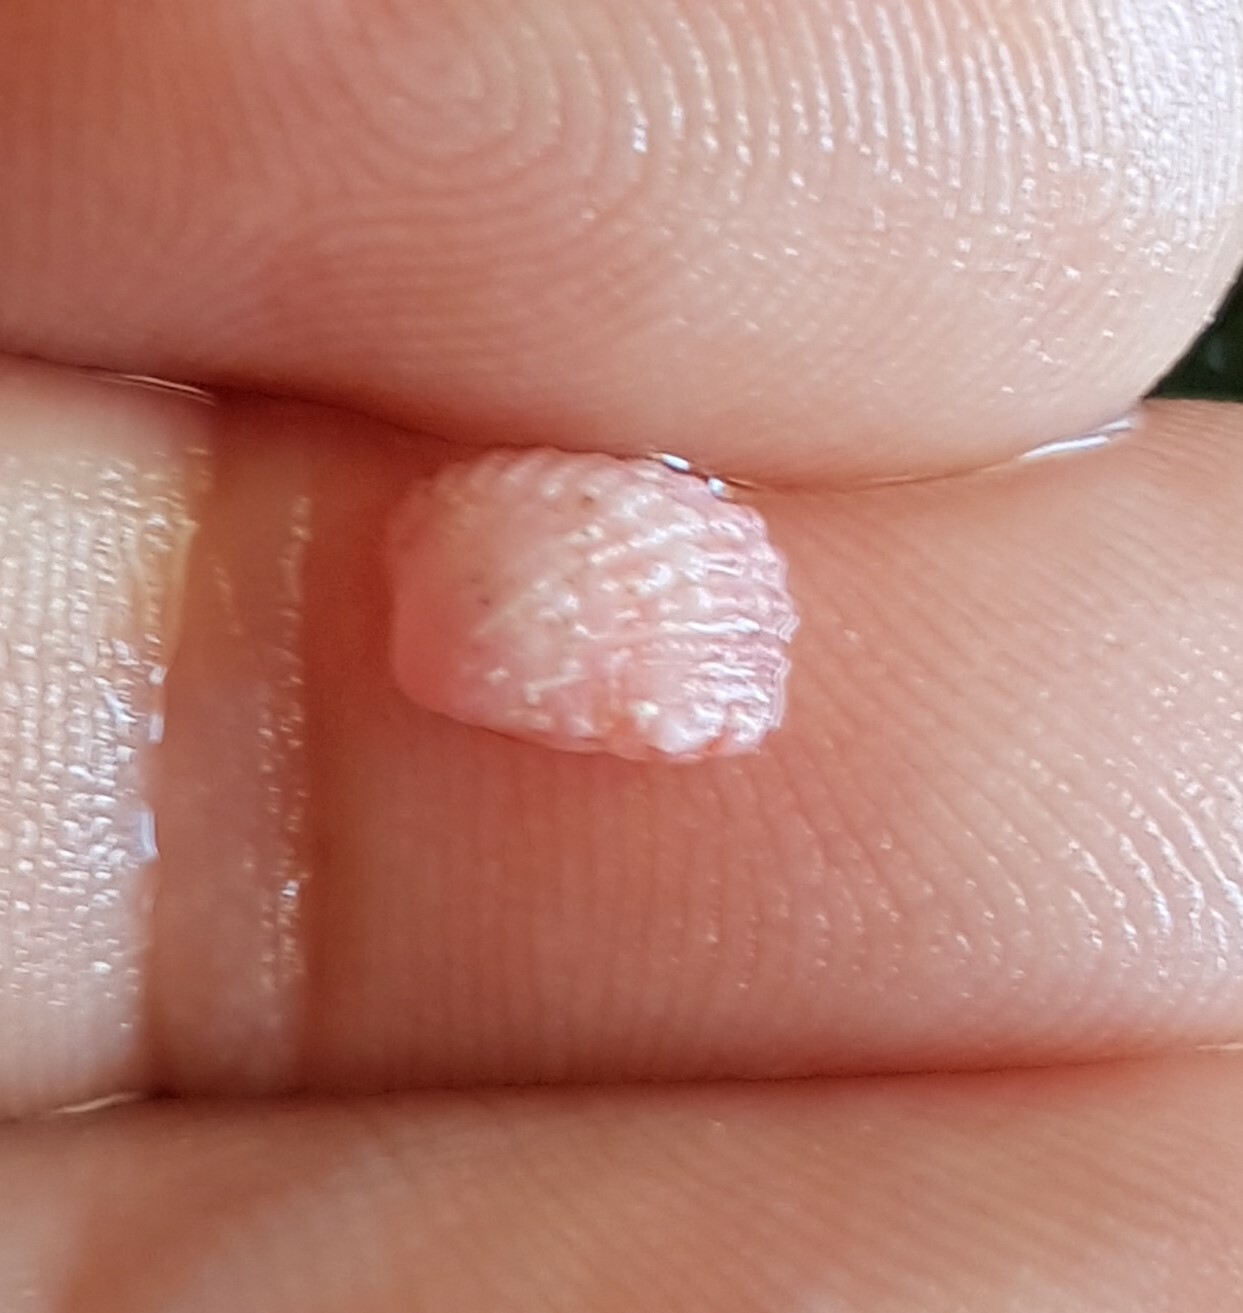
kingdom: Animalia
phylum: Mollusca
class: Bivalvia
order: Carditida
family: Carditidae
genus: Glans
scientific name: Glans trapezia
